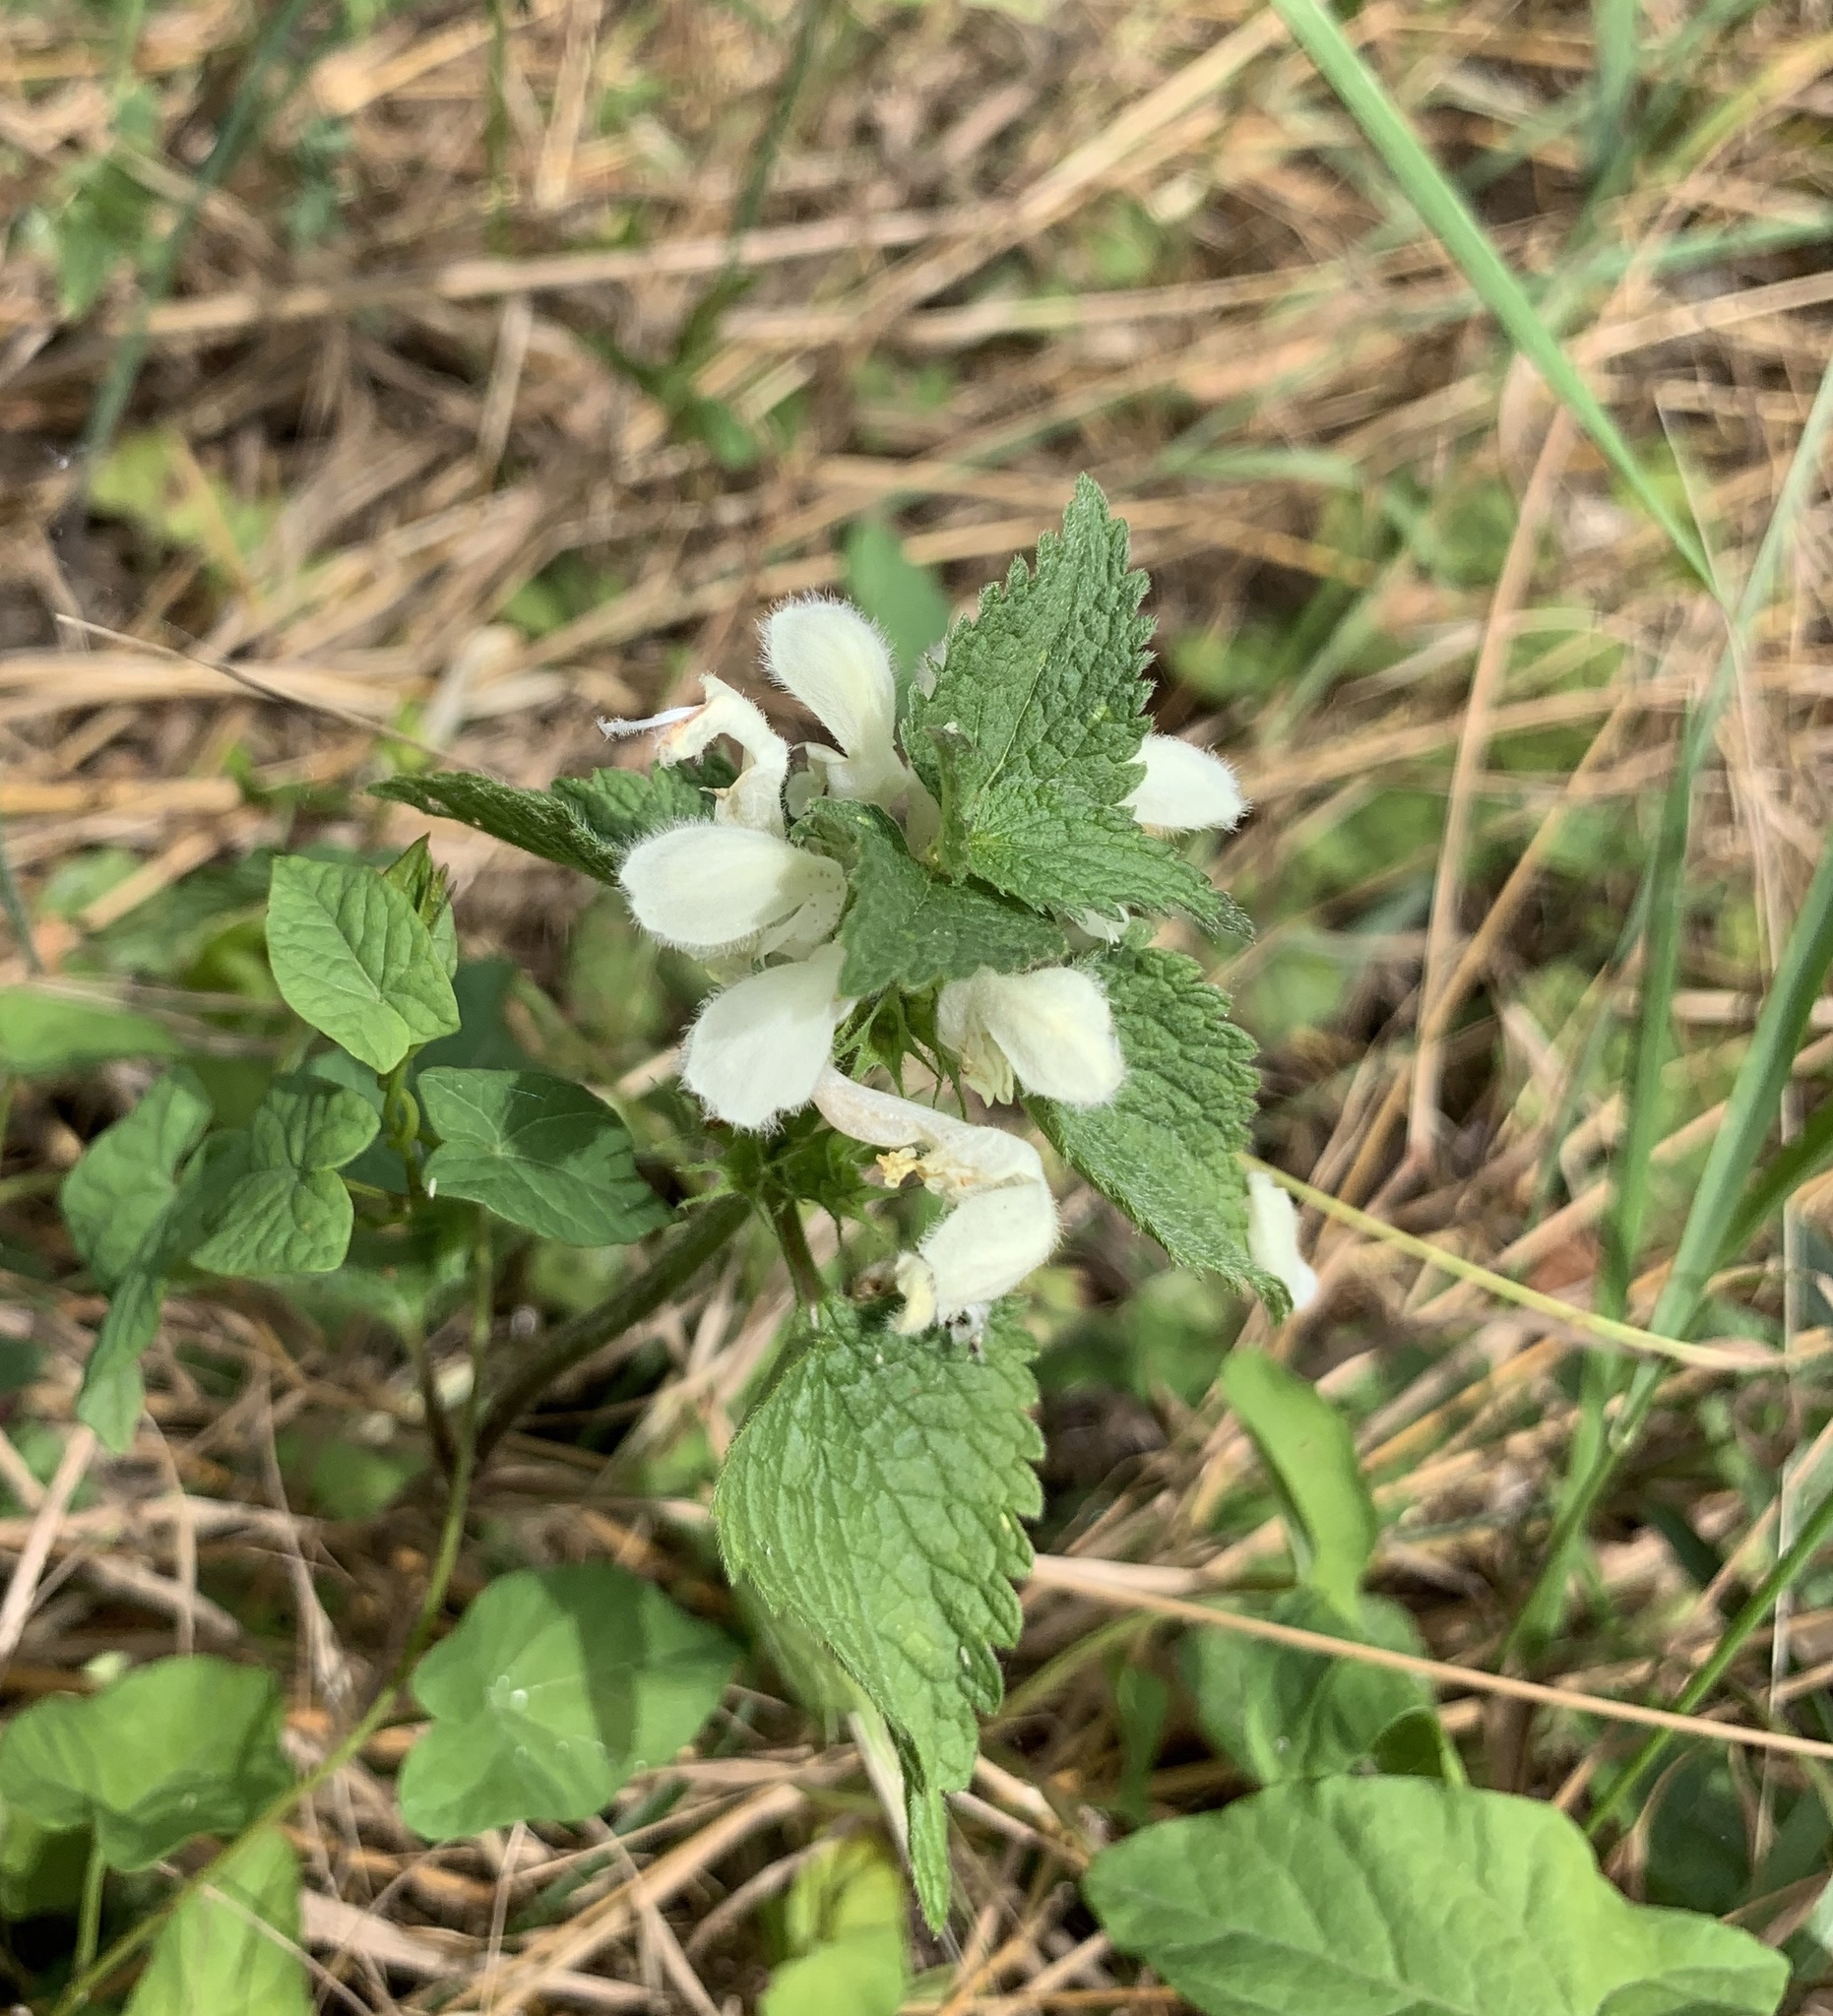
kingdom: Plantae
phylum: Tracheophyta
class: Magnoliopsida
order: Lamiales
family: Lamiaceae
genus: Lamium
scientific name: Lamium album
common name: White dead-nettle
